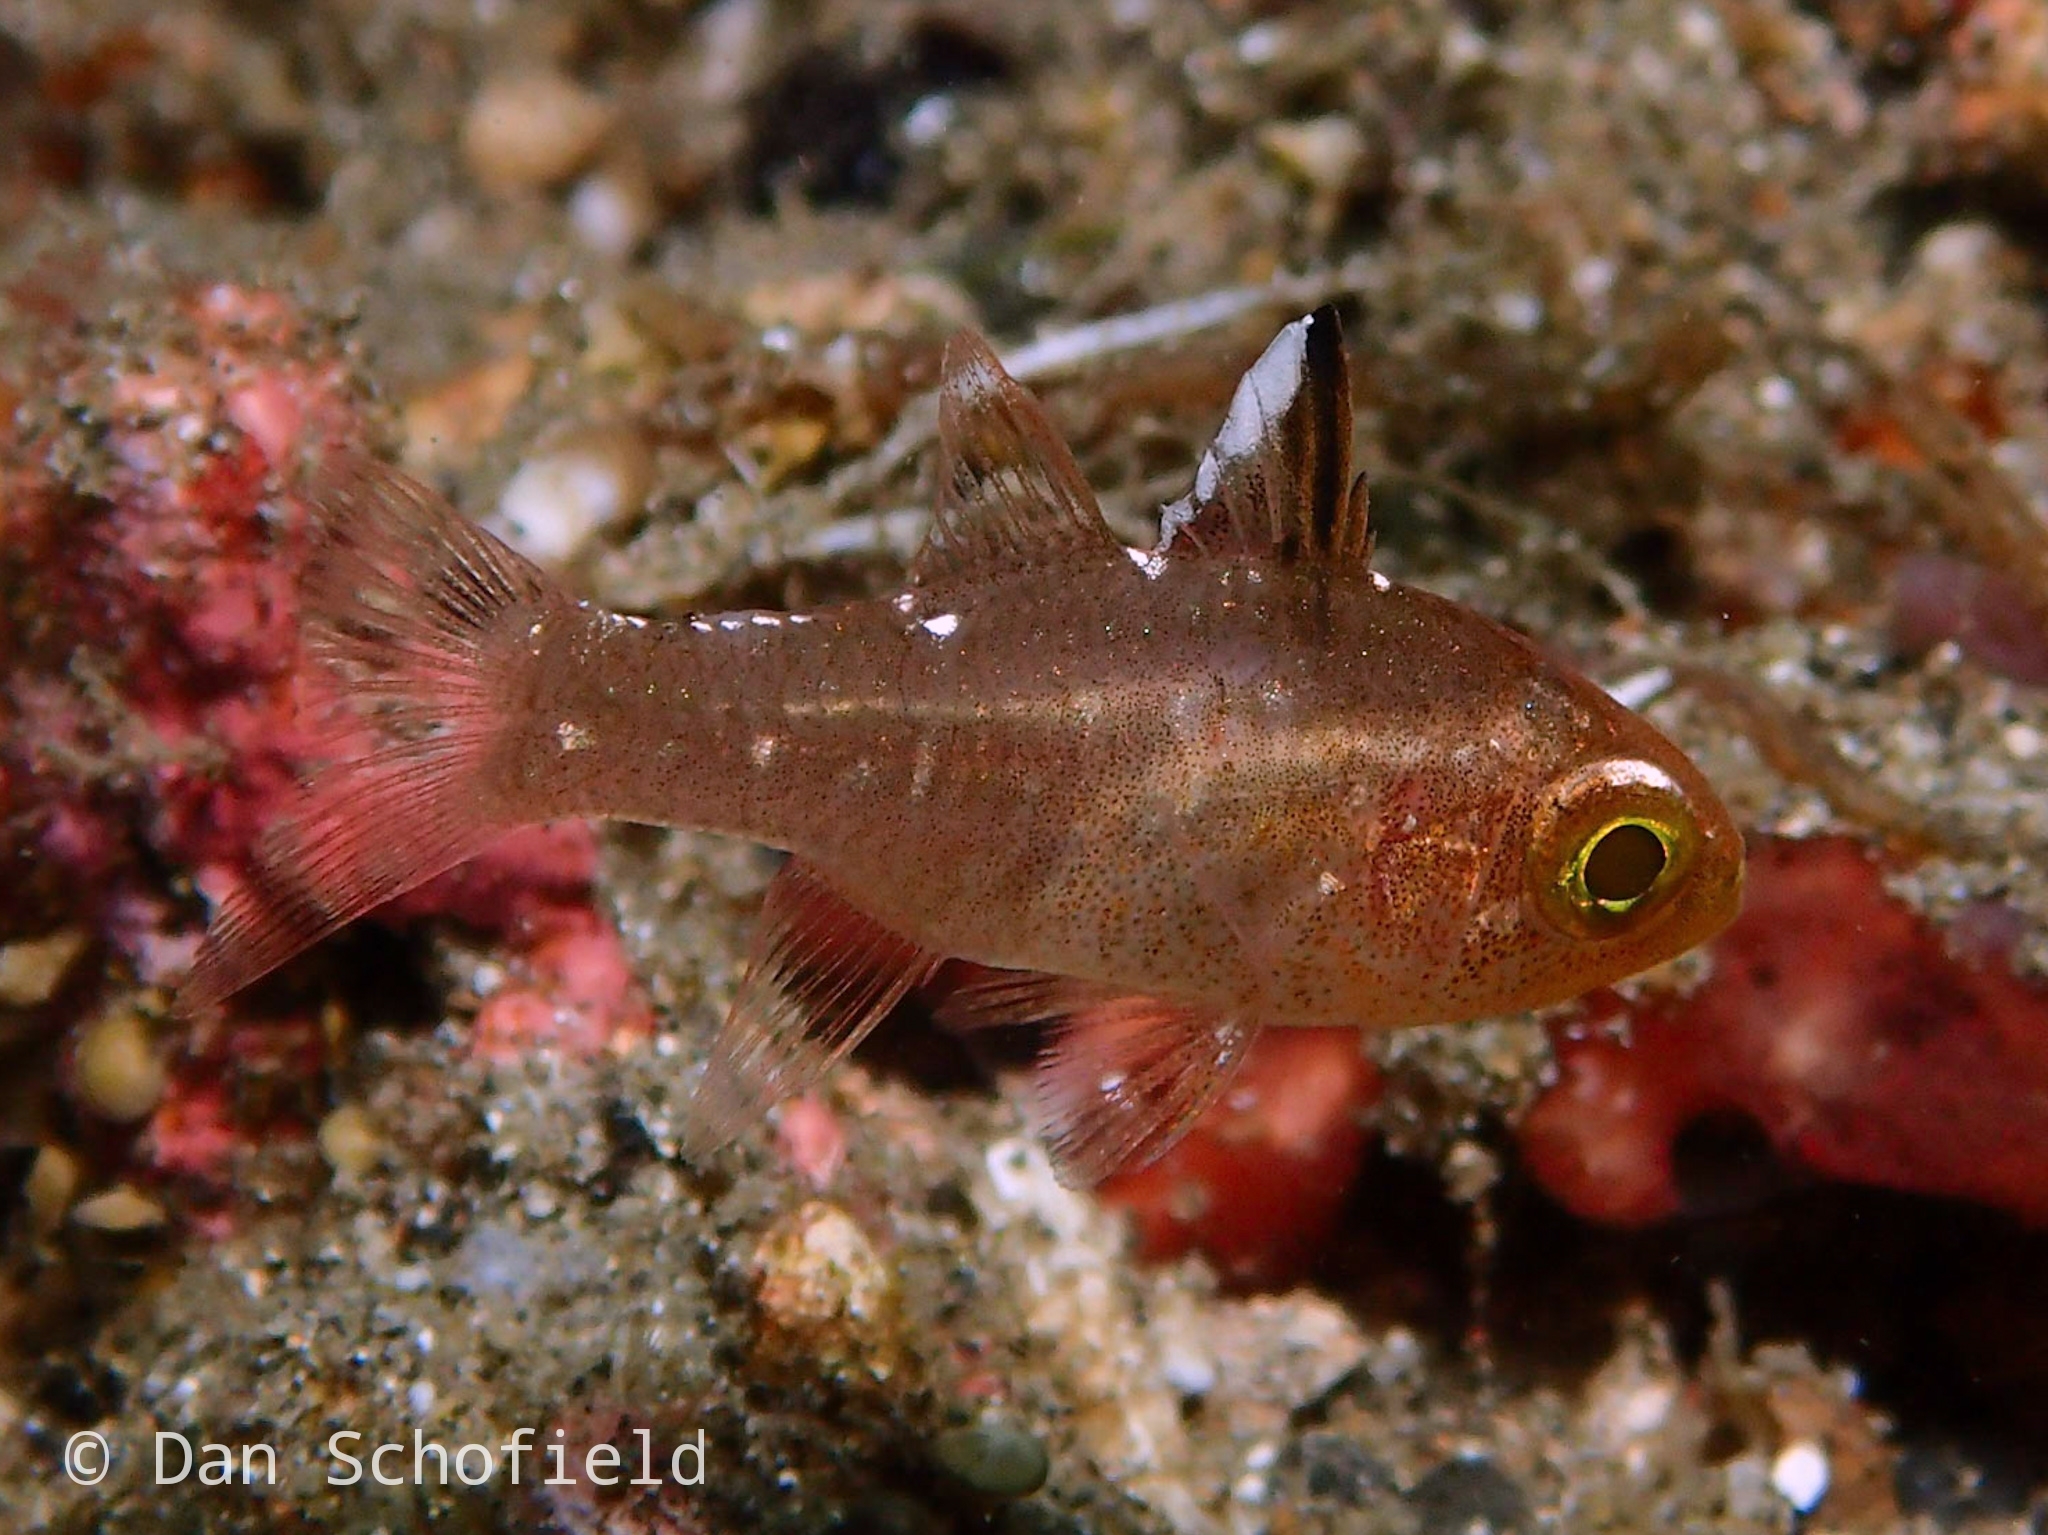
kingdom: Animalia
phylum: Chordata
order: Perciformes
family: Apogonidae
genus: Ostorhinchus
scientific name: Ostorhinchus hoevenii
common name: Flag-fin cardinal
